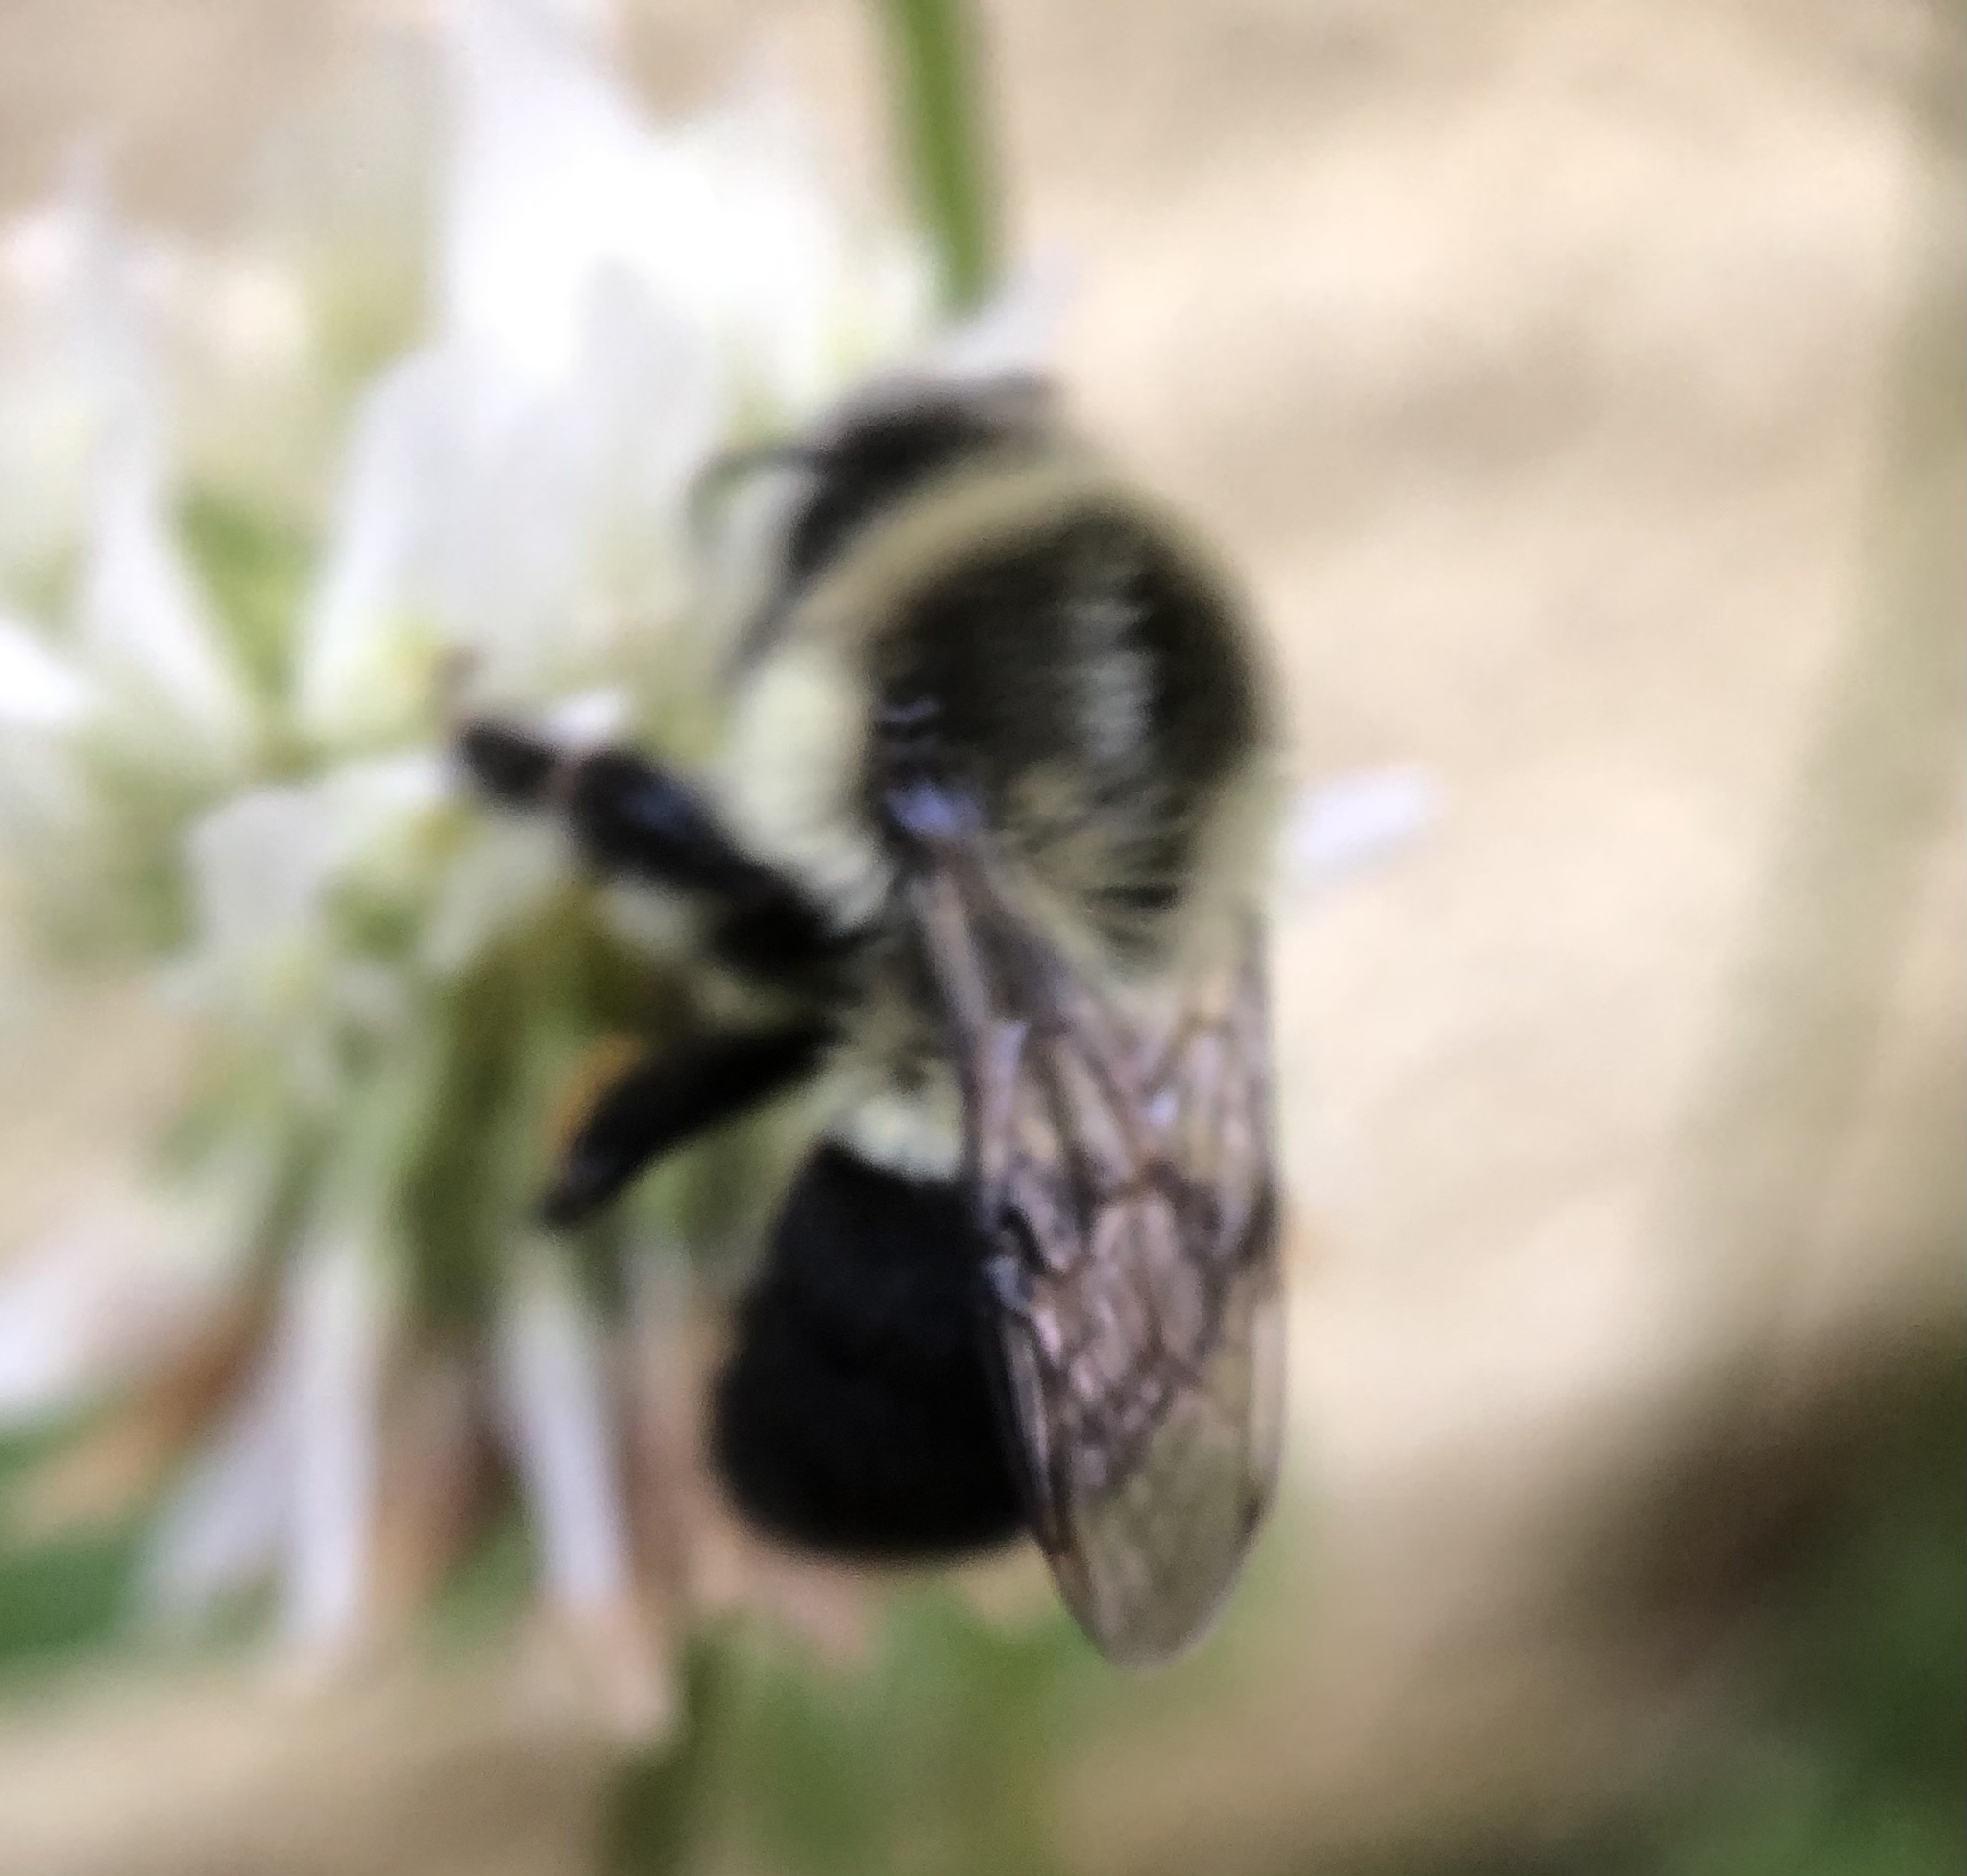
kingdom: Animalia
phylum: Arthropoda
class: Insecta
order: Hymenoptera
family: Apidae
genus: Bombus
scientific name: Bombus impatiens
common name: Common eastern bumble bee
